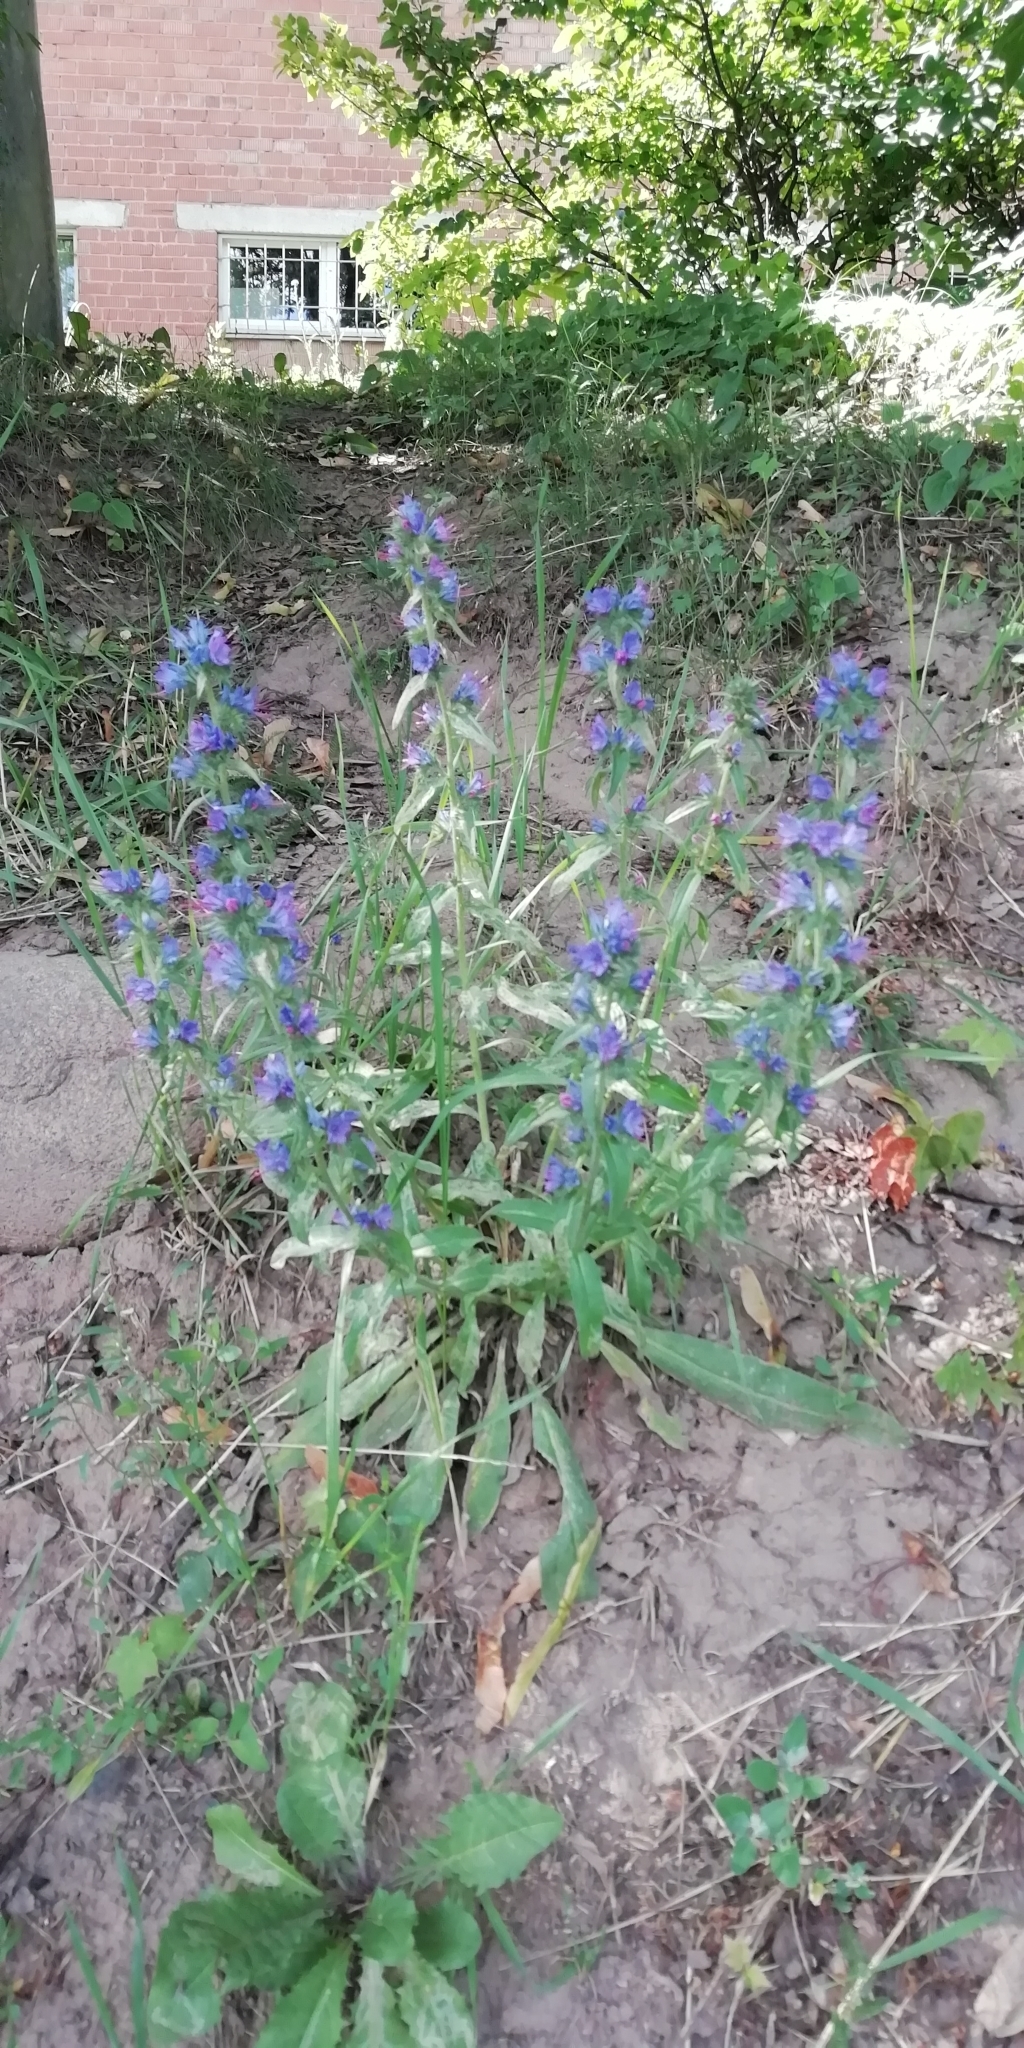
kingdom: Plantae
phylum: Tracheophyta
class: Magnoliopsida
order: Boraginales
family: Boraginaceae
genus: Echium
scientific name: Echium vulgare
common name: Common viper's bugloss
